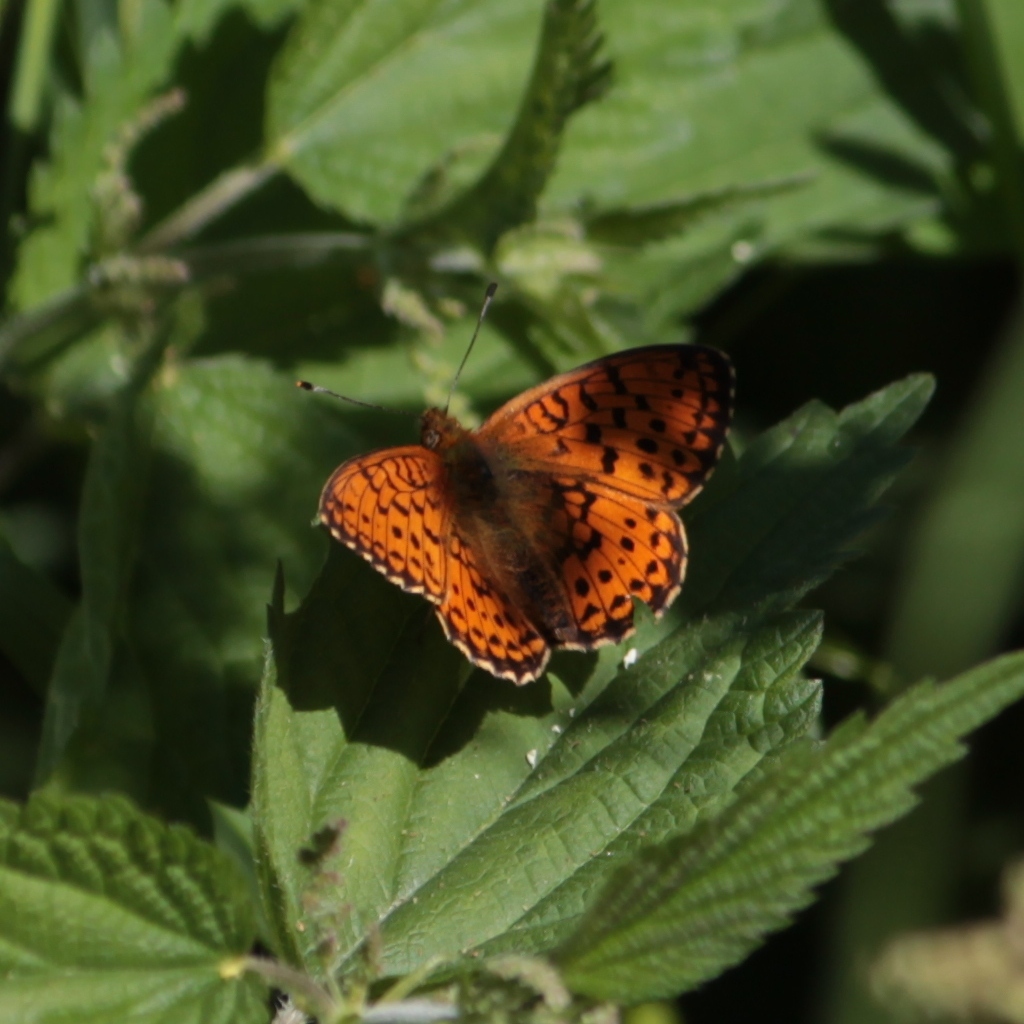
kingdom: Animalia
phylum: Arthropoda
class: Insecta
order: Lepidoptera
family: Nymphalidae
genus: Brenthis
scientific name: Brenthis ino
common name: Lesser marbled fritillary
